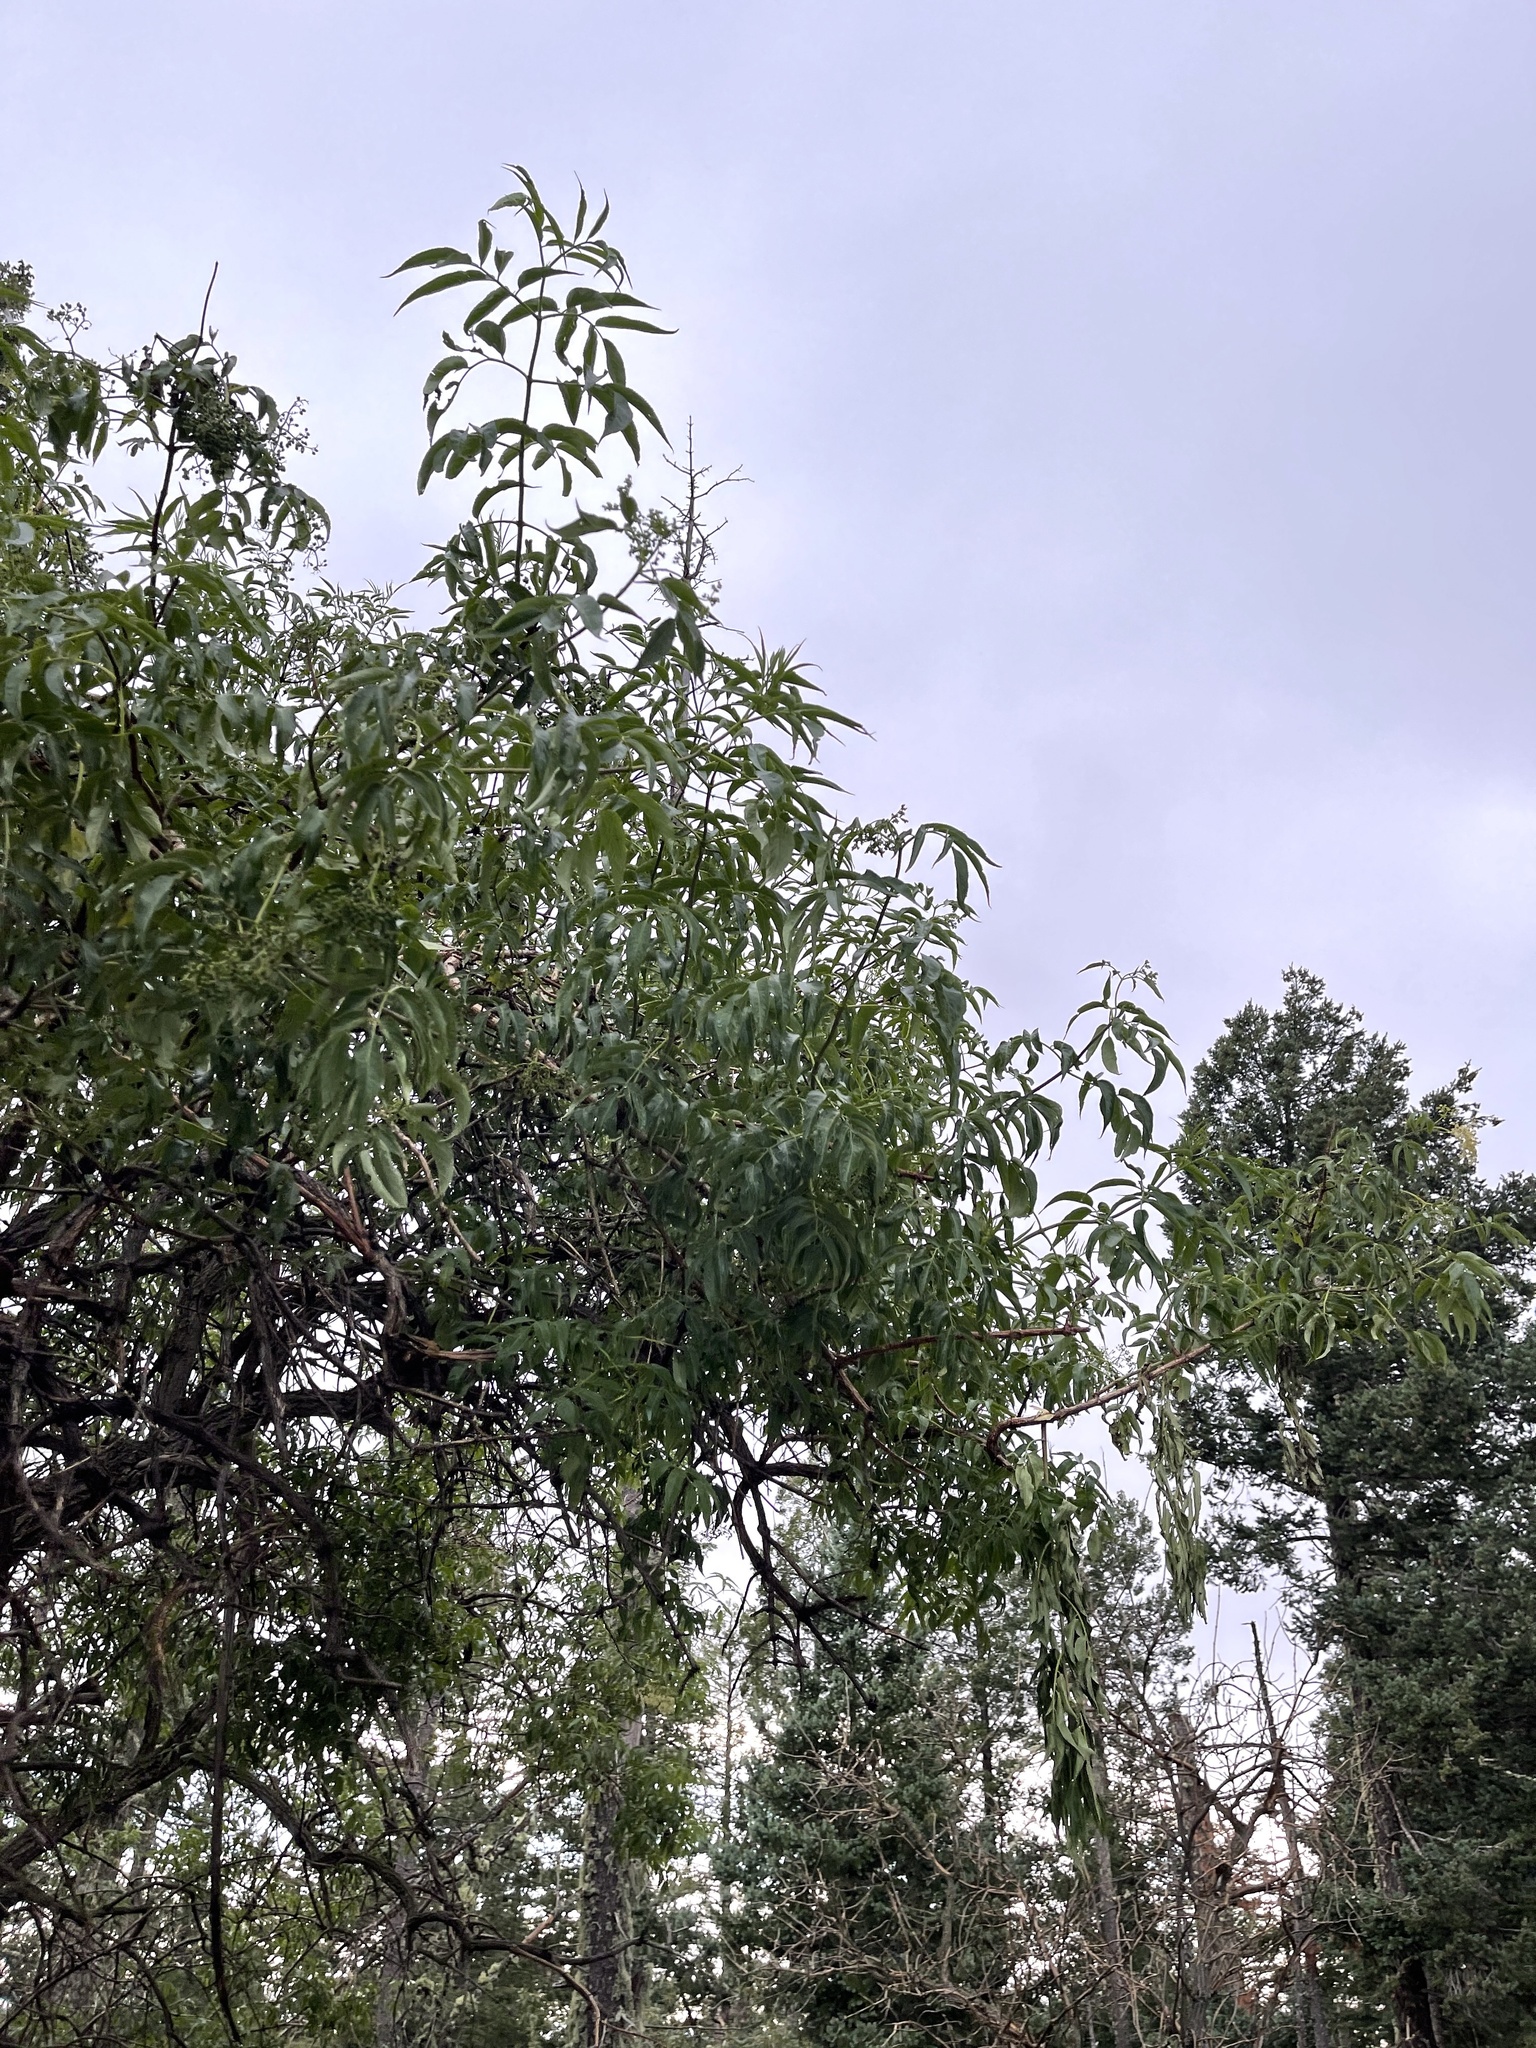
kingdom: Plantae
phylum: Tracheophyta
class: Magnoliopsida
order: Dipsacales
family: Viburnaceae
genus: Sambucus
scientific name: Sambucus cerulea
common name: Blue elder
